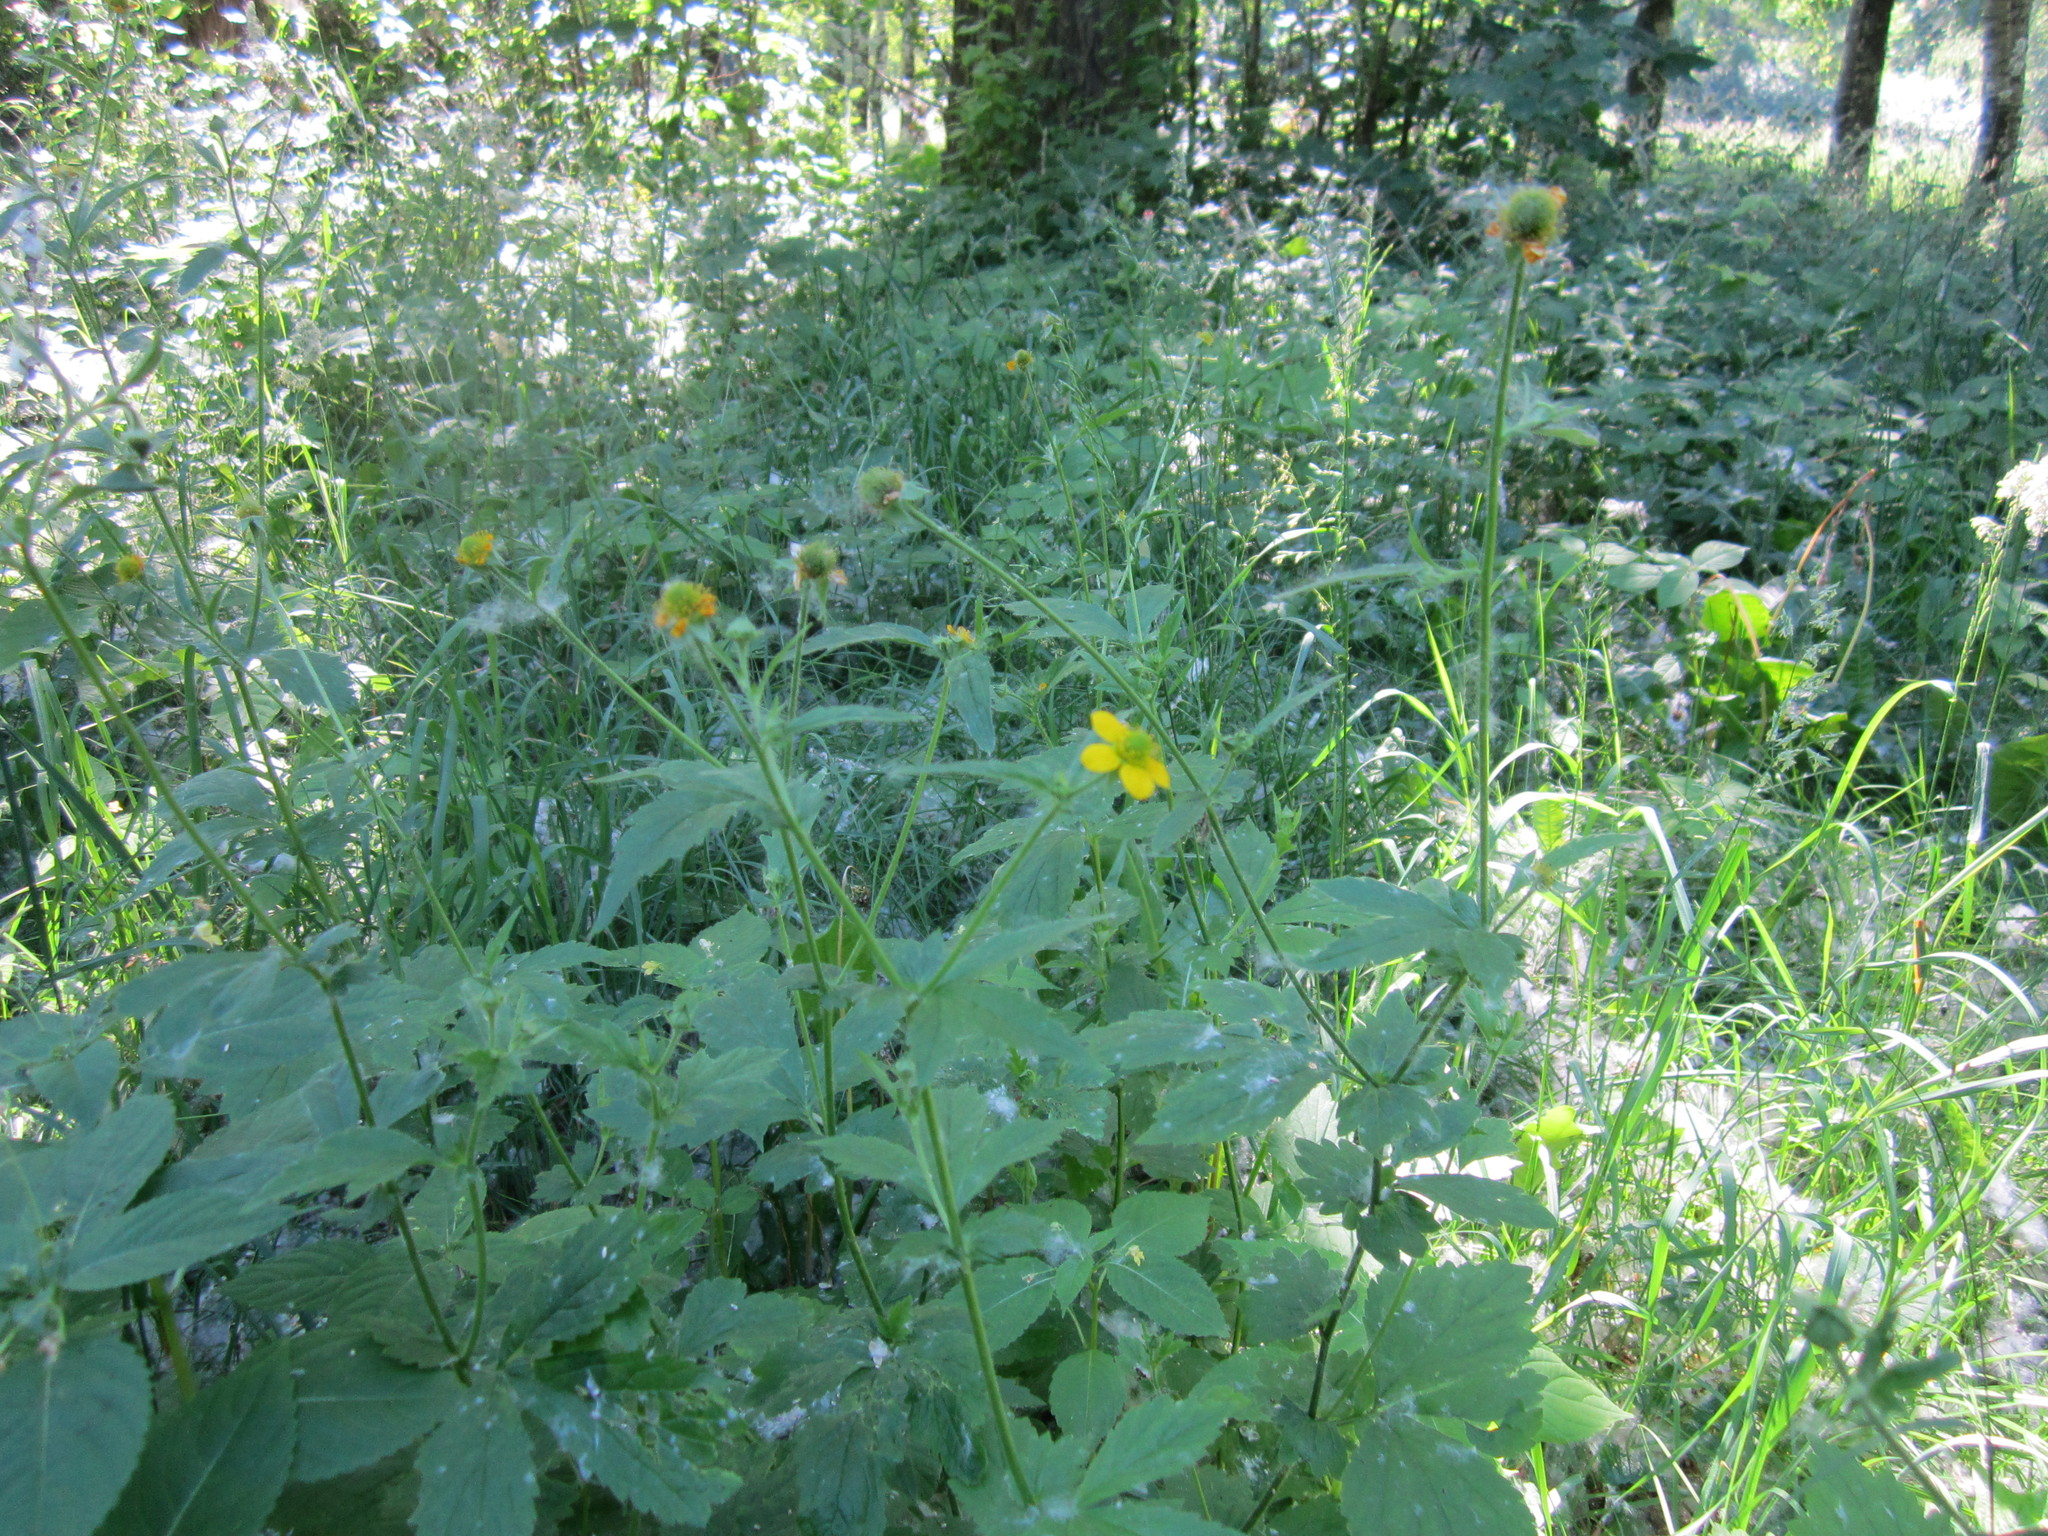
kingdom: Plantae
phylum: Tracheophyta
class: Magnoliopsida
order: Rosales
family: Rosaceae
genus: Geum
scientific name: Geum macrophyllum
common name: Large-leaved avens
